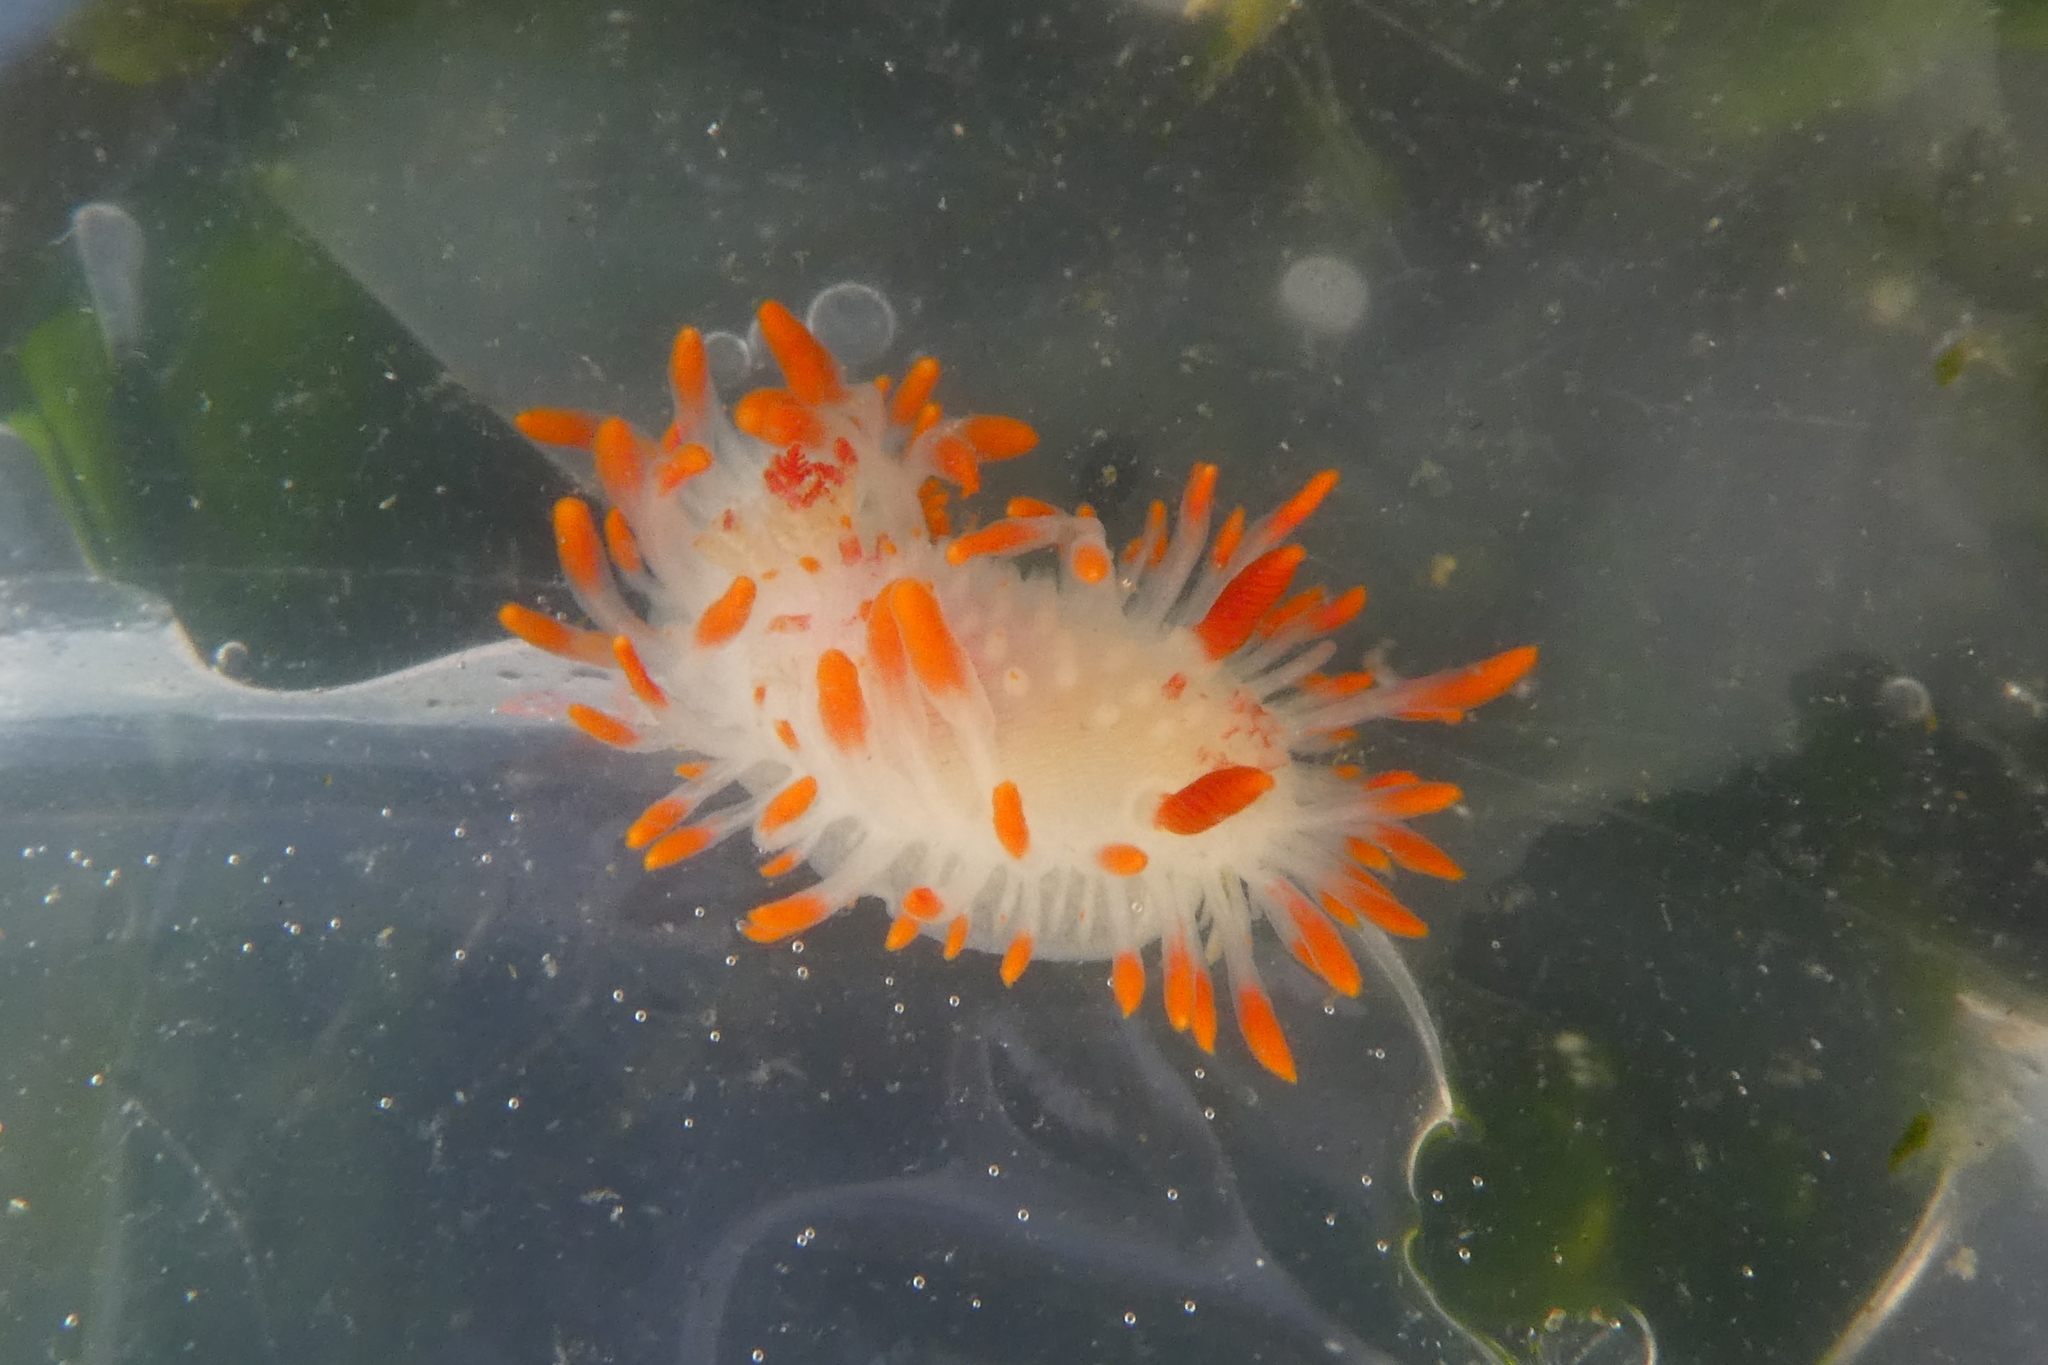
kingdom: Animalia
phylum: Mollusca
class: Gastropoda
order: Nudibranchia
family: Polyceridae
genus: Limacia
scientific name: Limacia cockerelli
